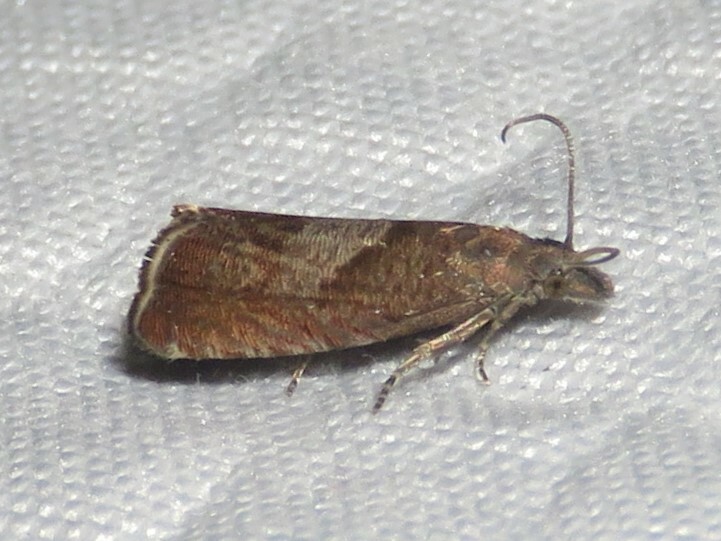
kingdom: Animalia
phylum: Arthropoda
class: Insecta
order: Lepidoptera
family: Tortricidae
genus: Dichrorampha
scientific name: Dichrorampha acuminatana
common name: Sharp-winged drill
